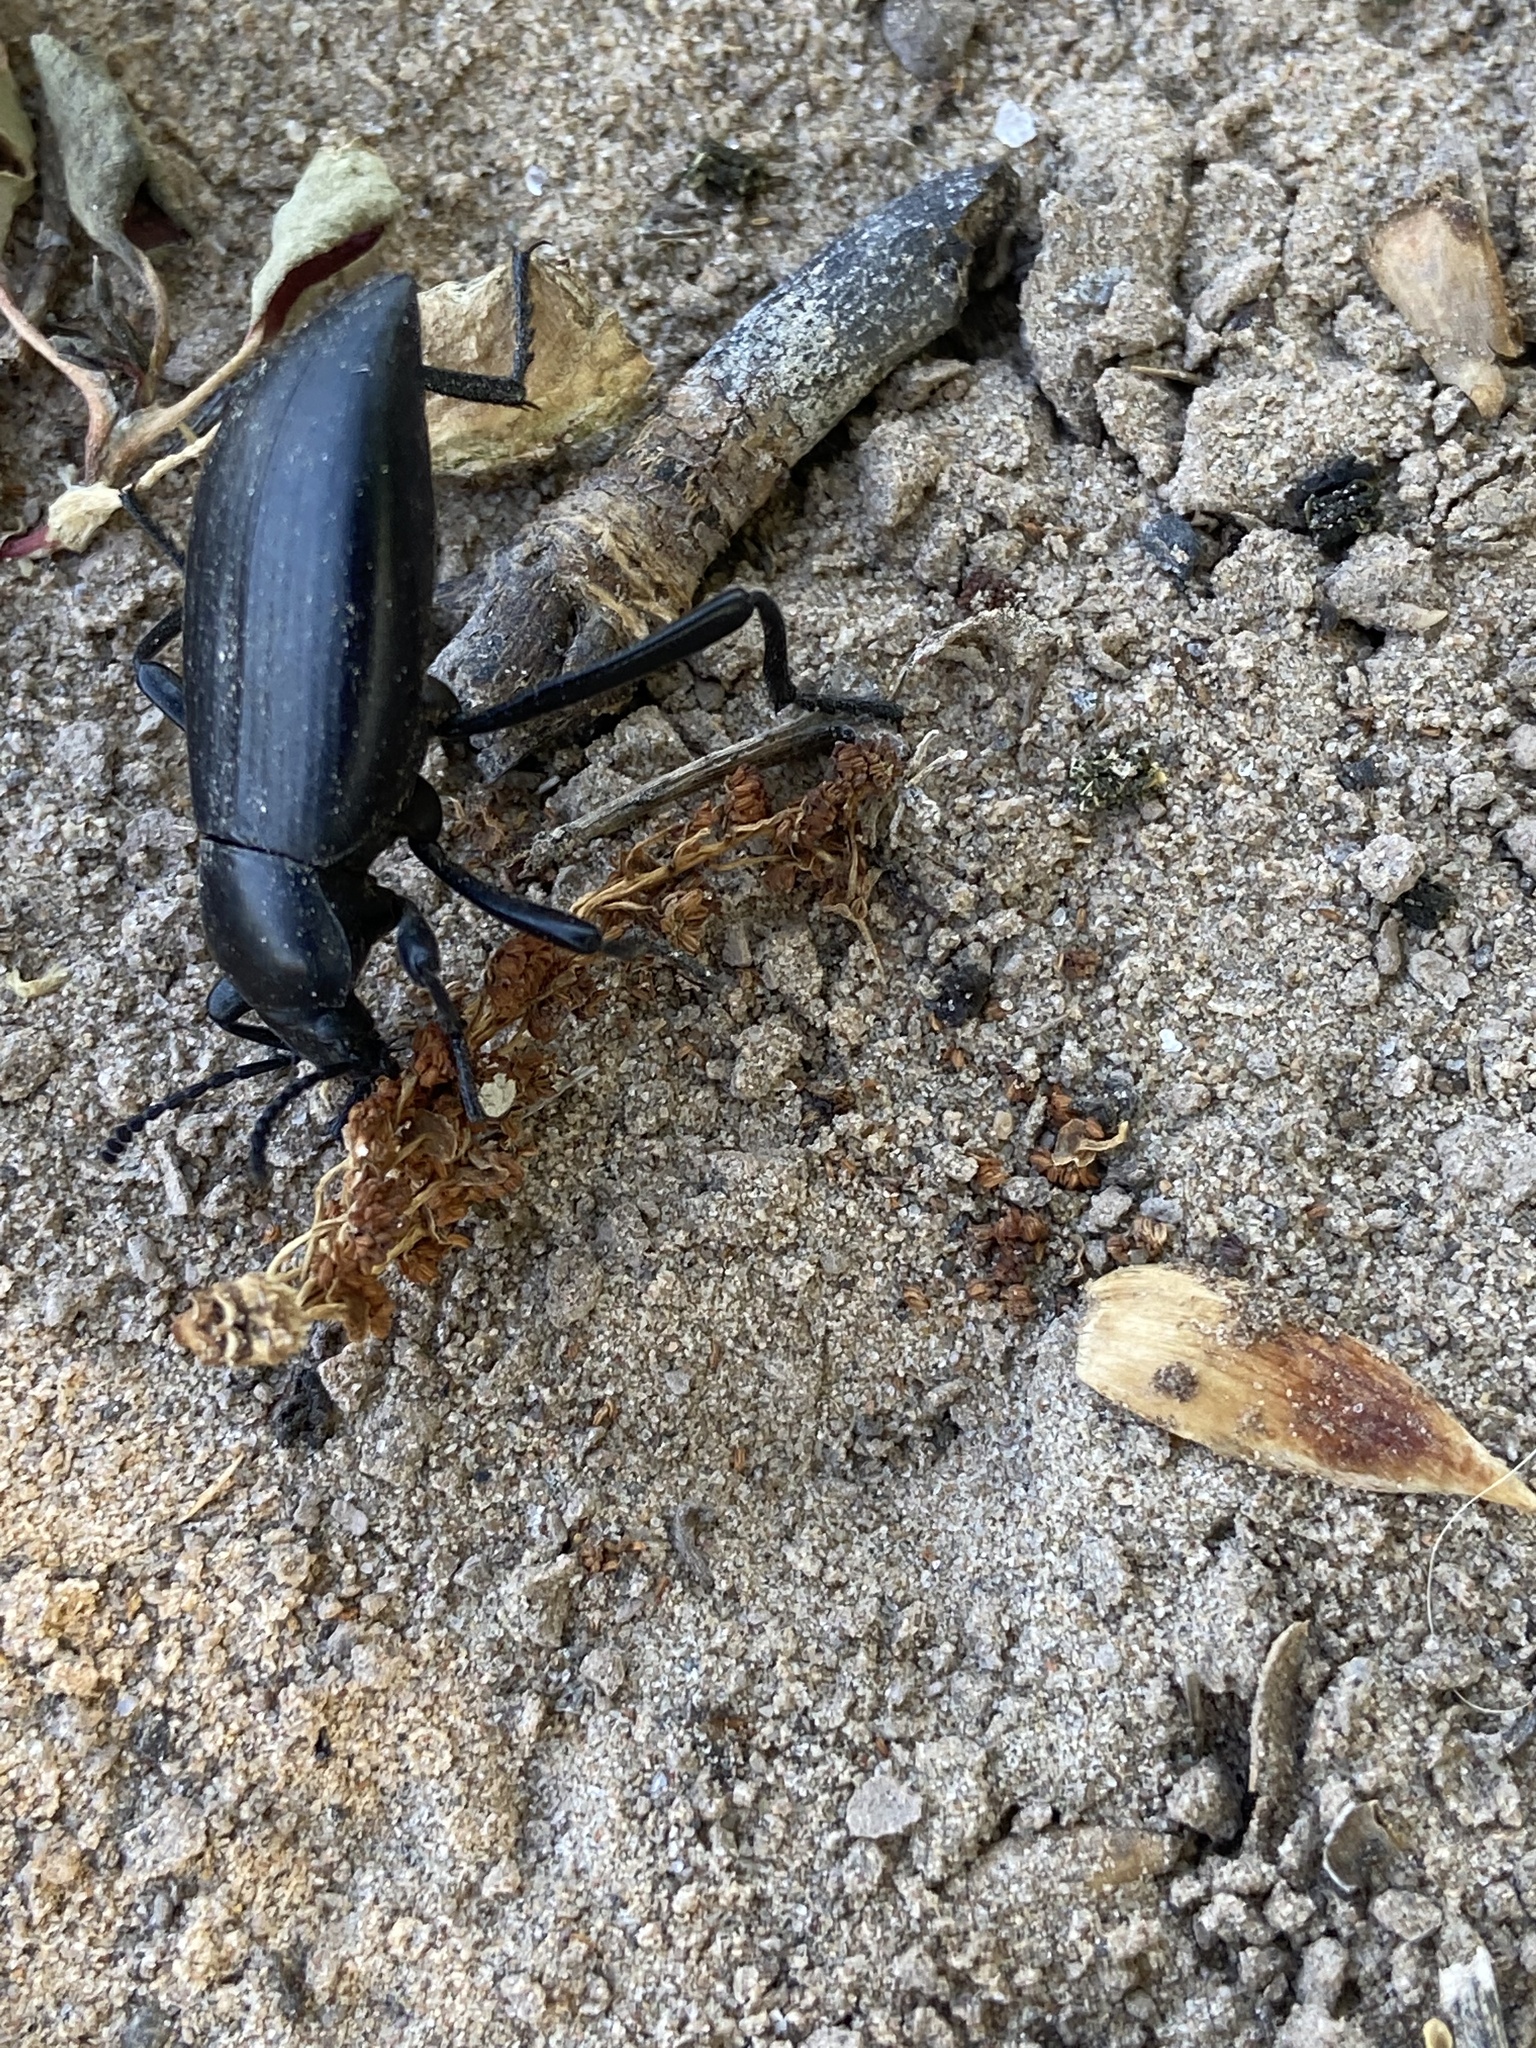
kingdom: Animalia
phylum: Arthropoda
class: Insecta
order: Coleoptera
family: Tenebrionidae
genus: Eleodes
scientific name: Eleodes gracilis
